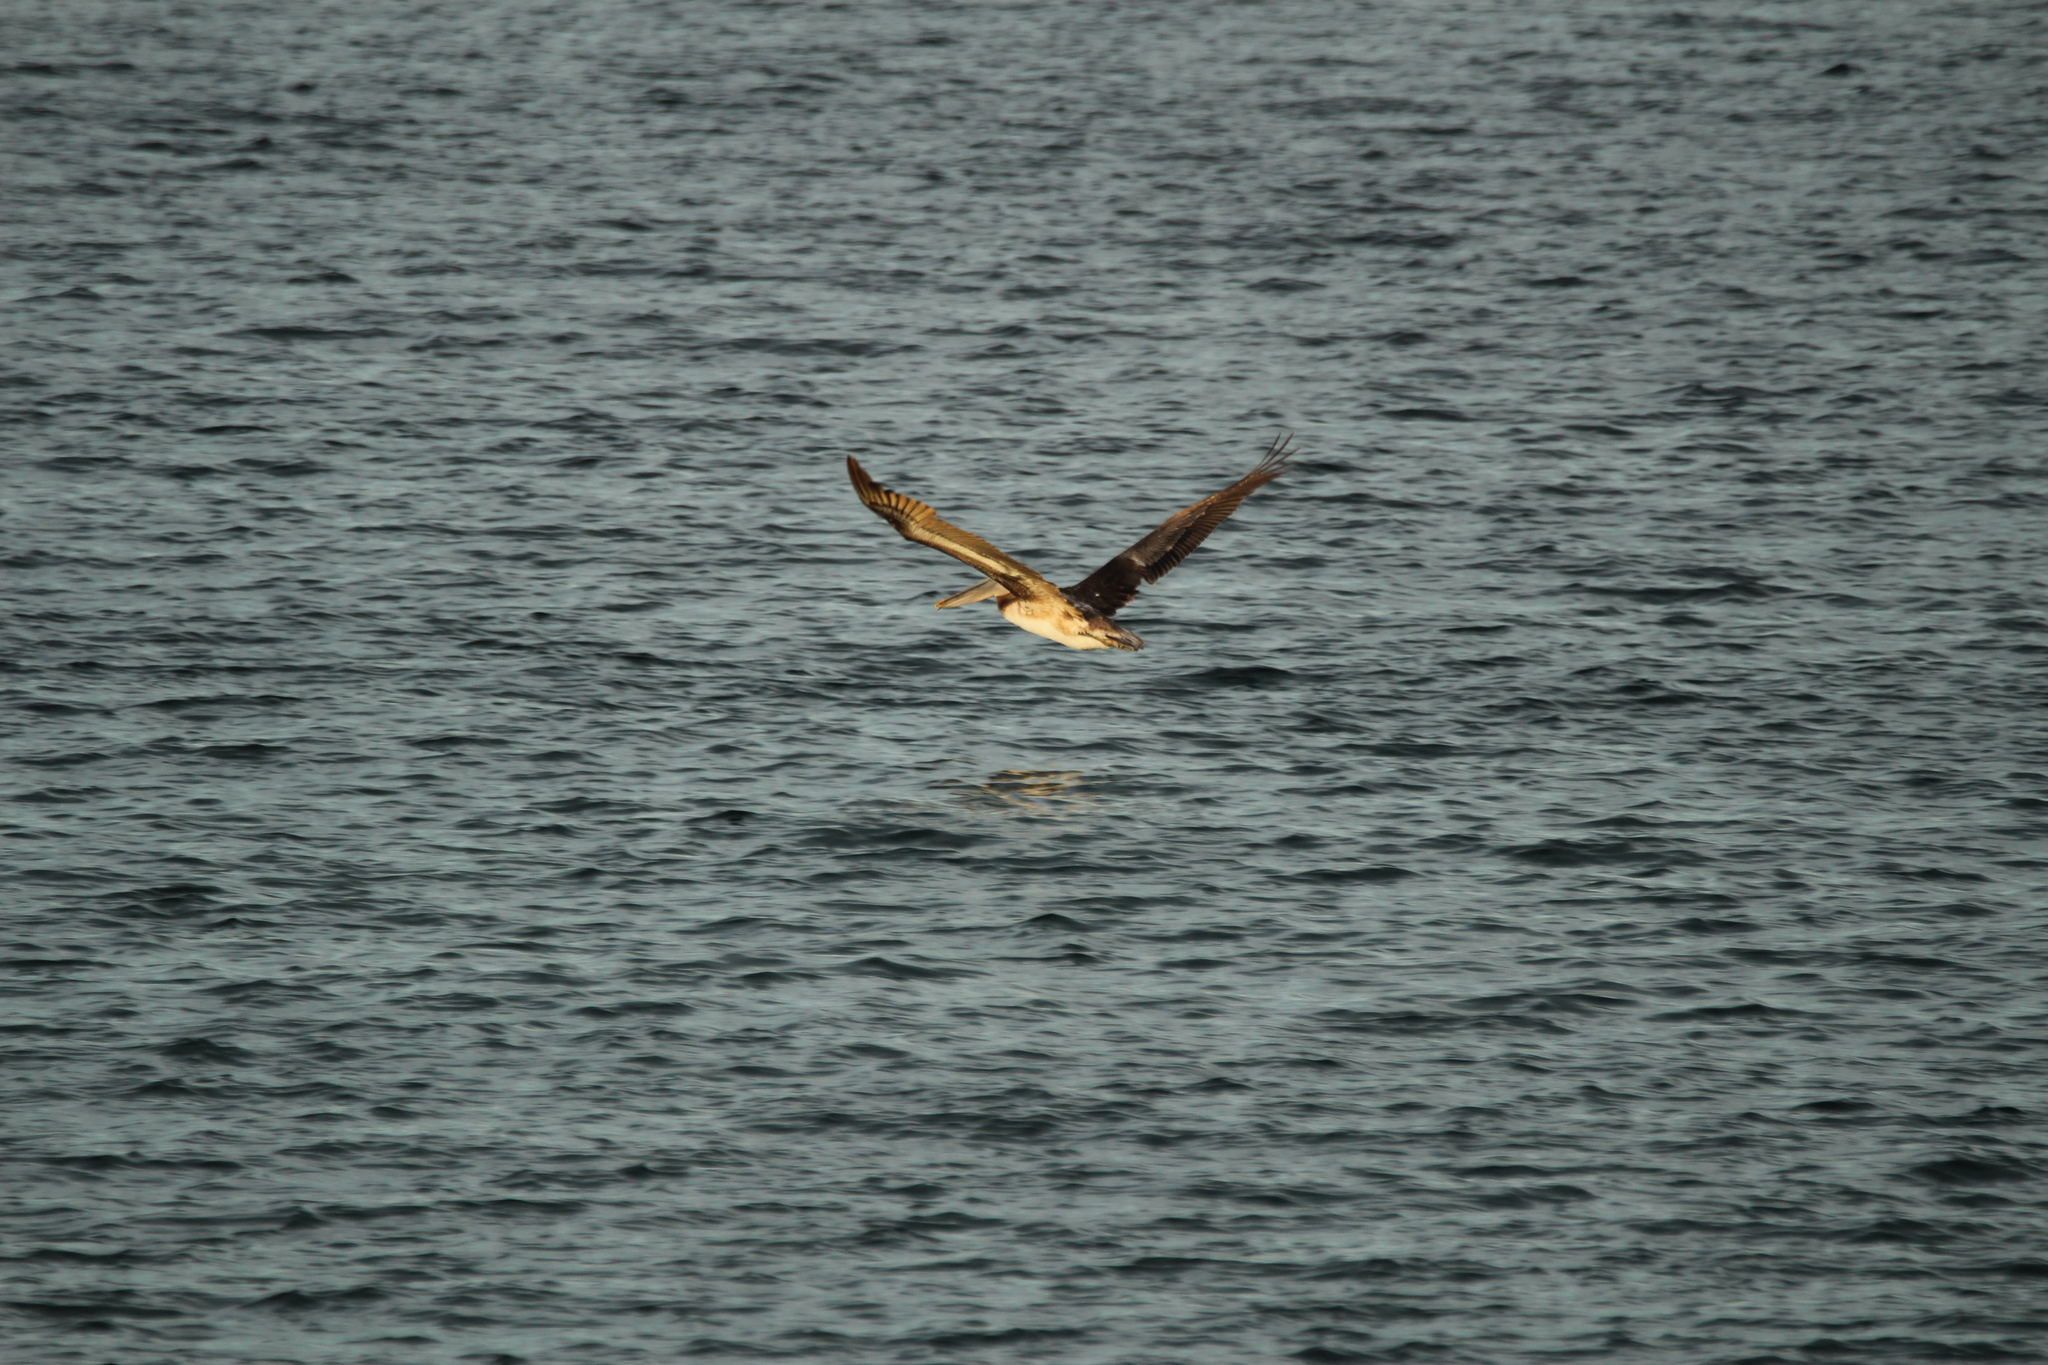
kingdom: Animalia
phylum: Chordata
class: Aves
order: Pelecaniformes
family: Pelecanidae
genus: Pelecanus
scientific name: Pelecanus occidentalis
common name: Brown pelican
